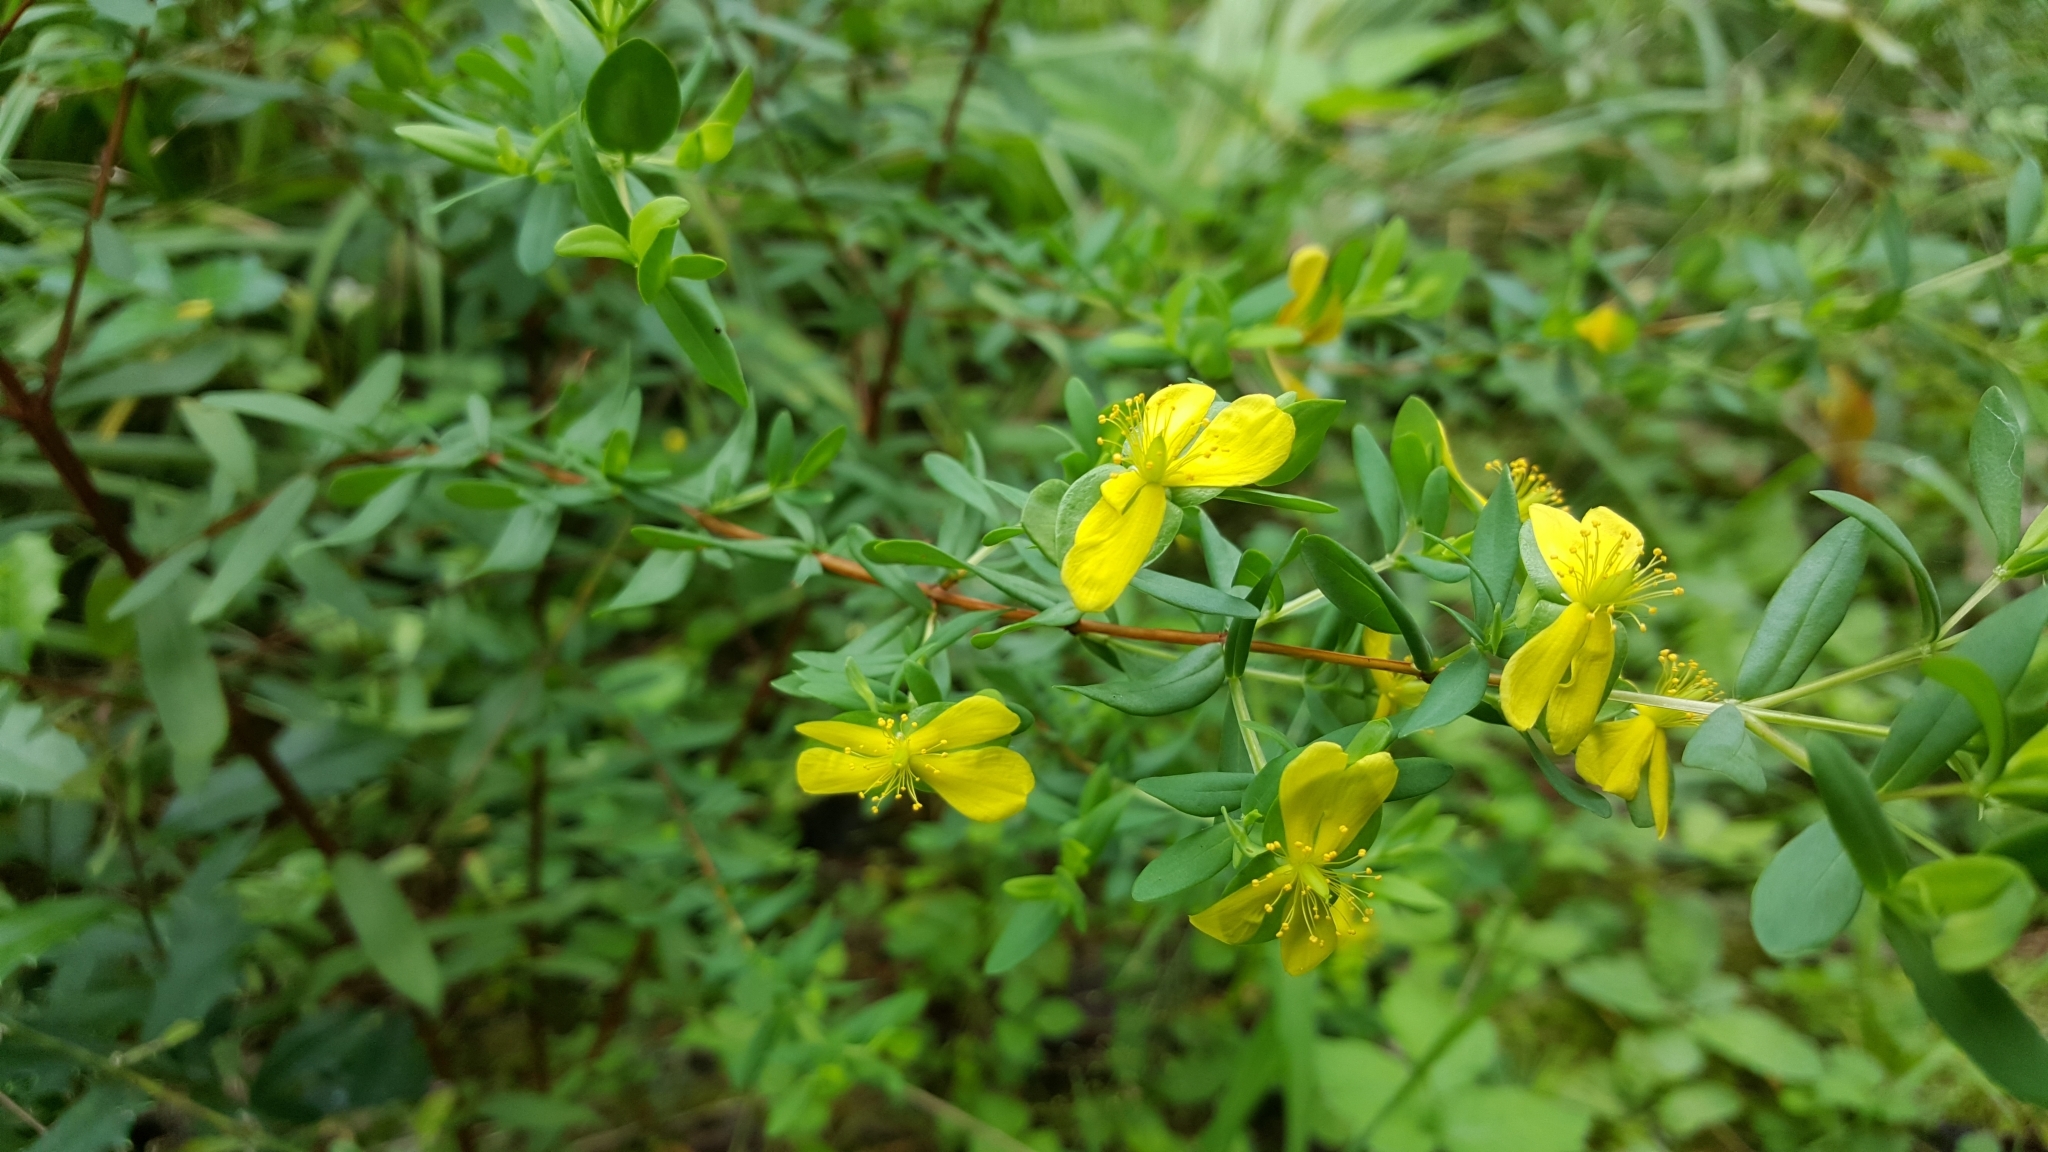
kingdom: Plantae
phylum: Tracheophyta
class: Magnoliopsida
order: Malpighiales
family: Hypericaceae
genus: Hypericum
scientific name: Hypericum hypericoides
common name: St. andrew's cross
